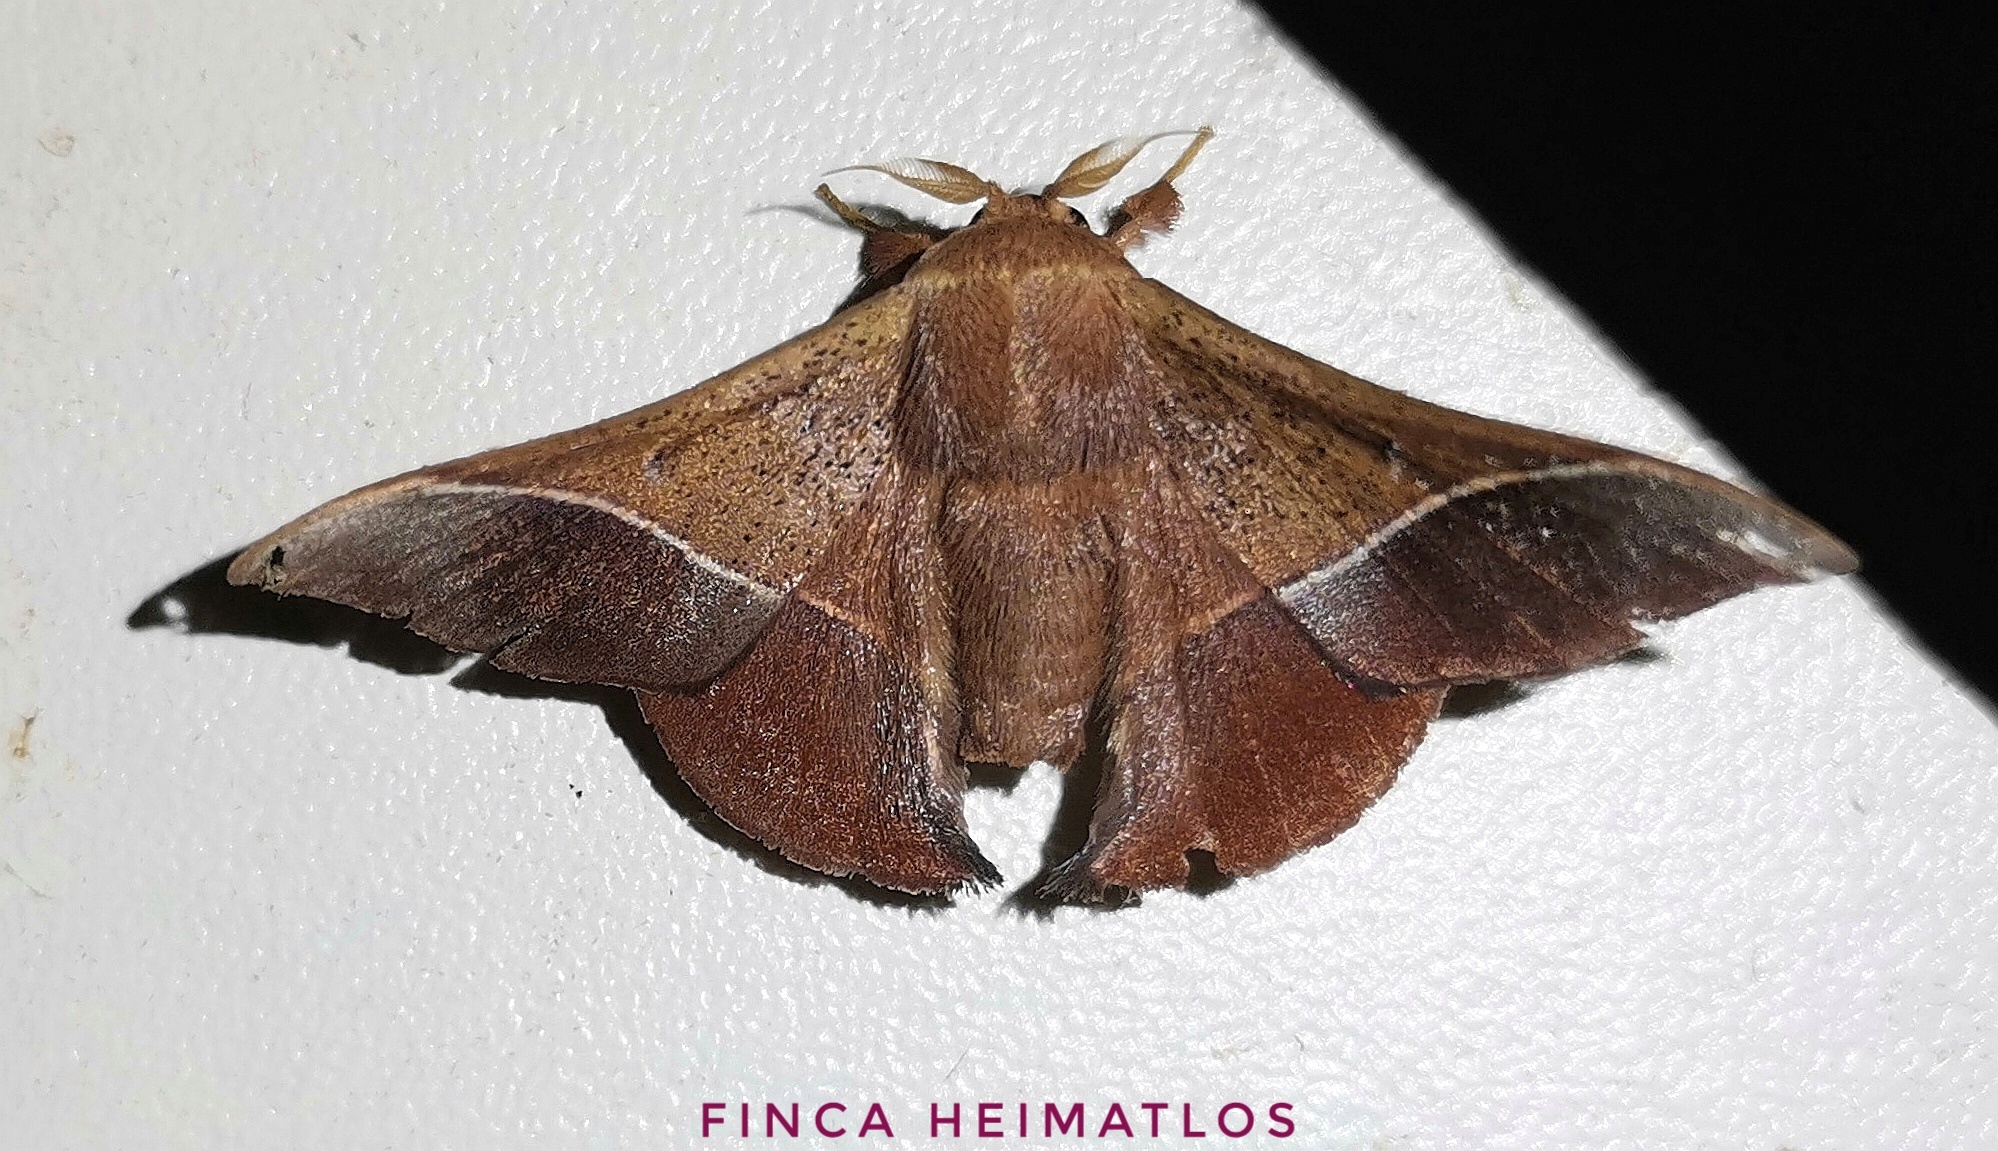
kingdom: Animalia
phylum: Arthropoda
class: Insecta
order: Lepidoptera
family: Mimallonidae
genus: Alheita
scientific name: Alheita caudina
